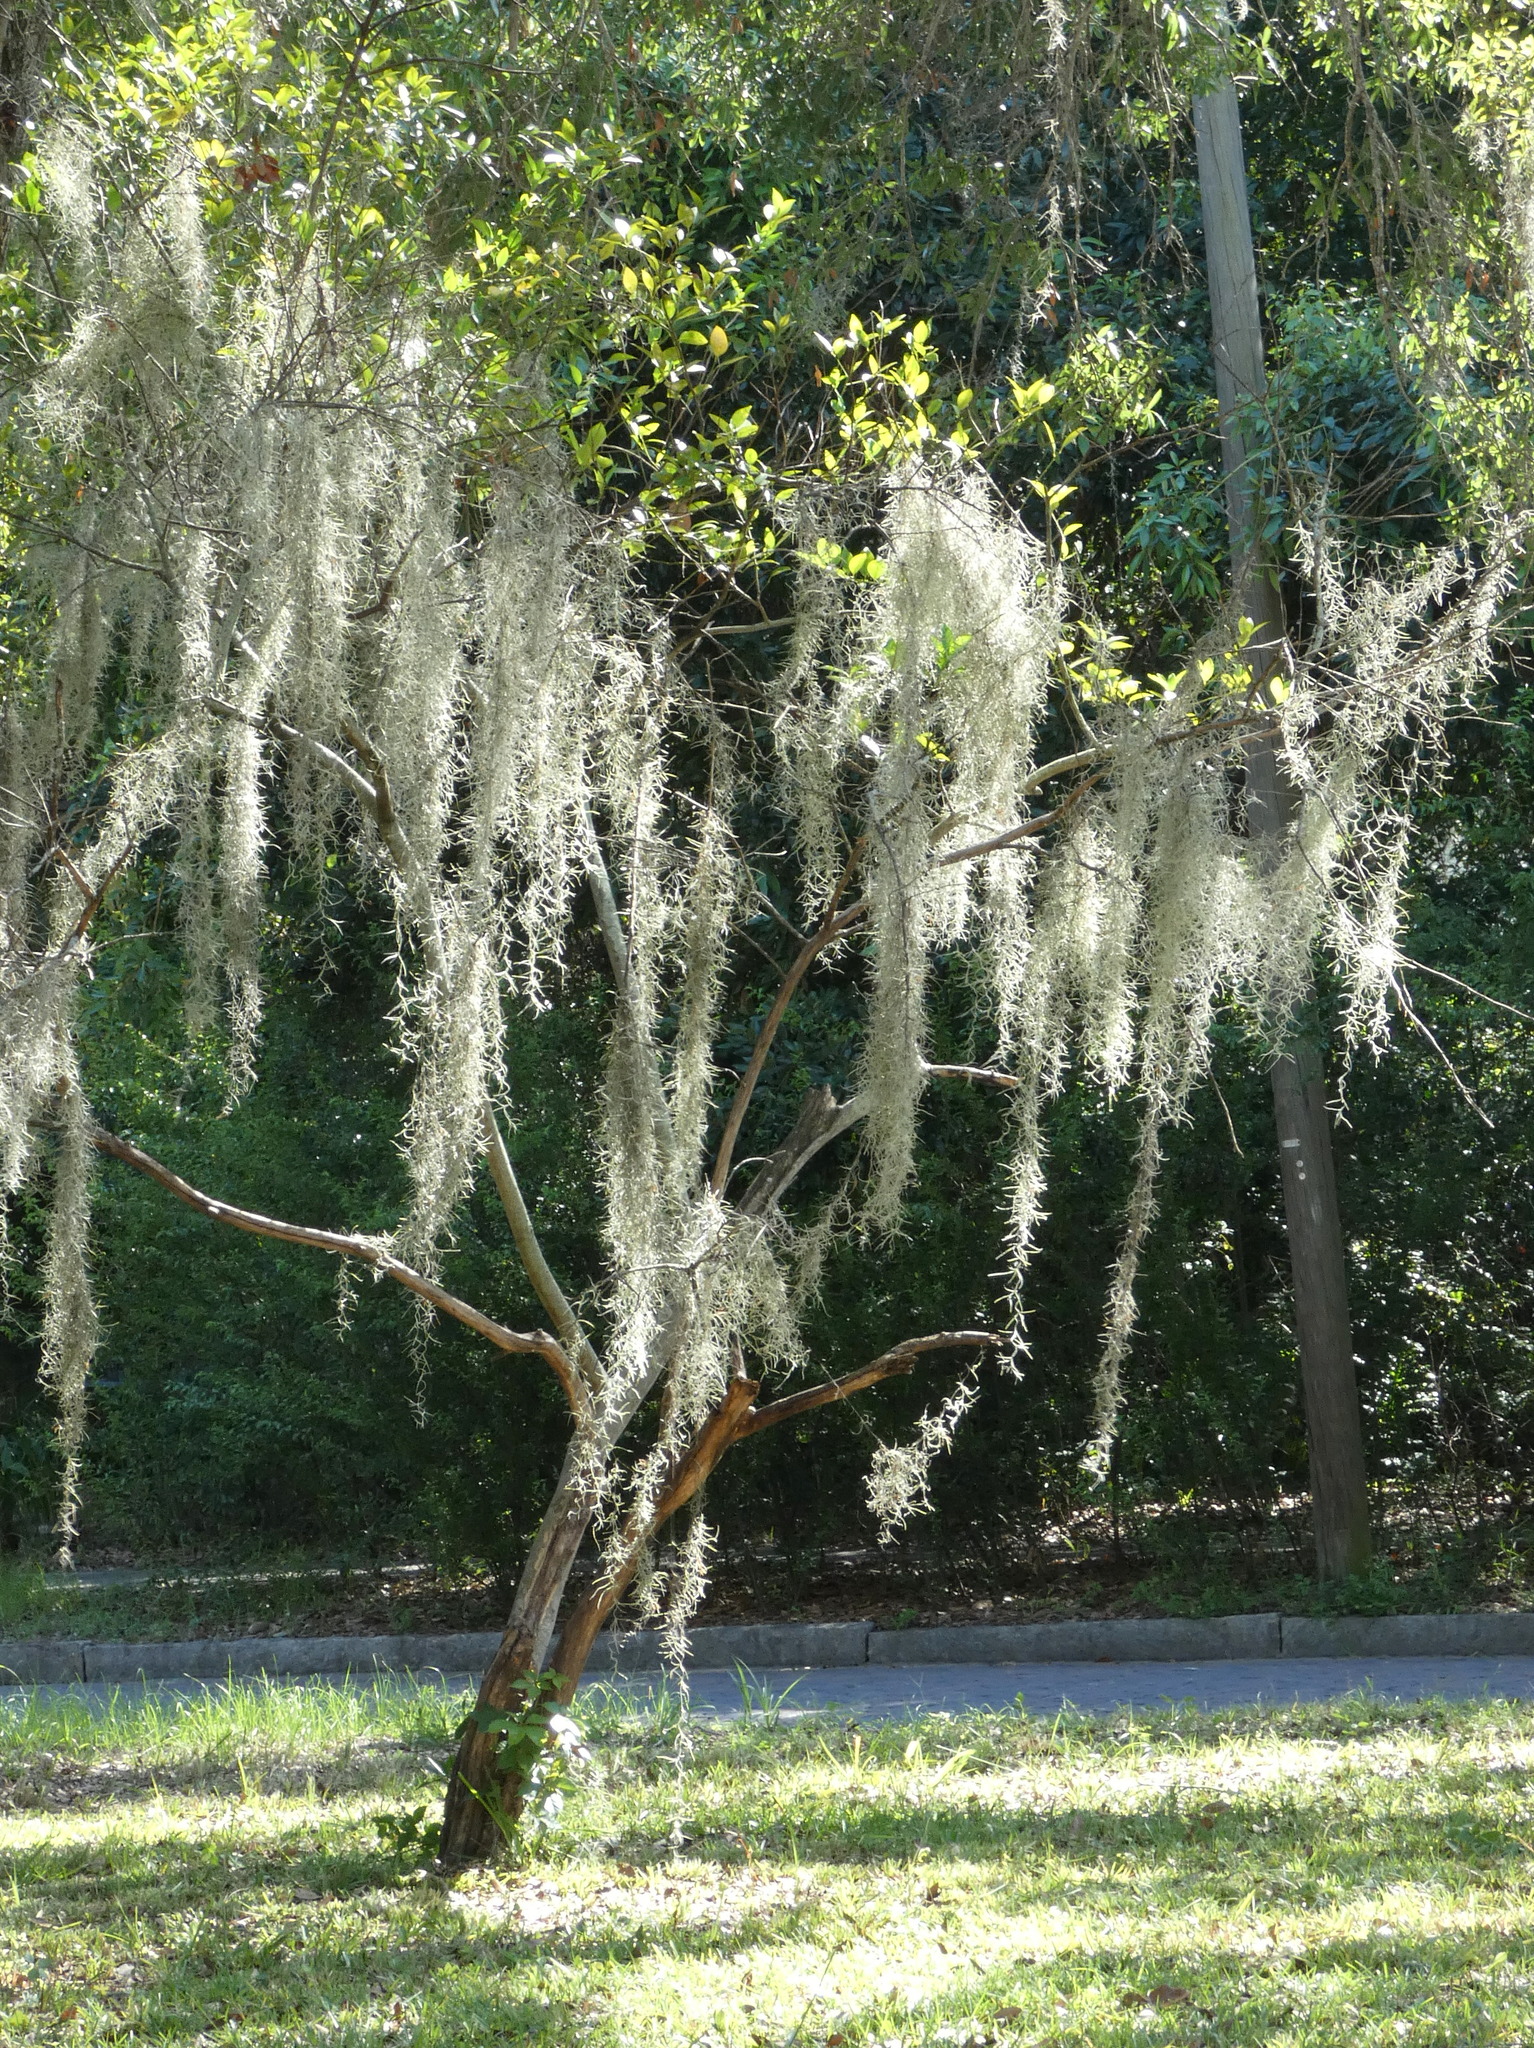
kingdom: Plantae
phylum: Tracheophyta
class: Liliopsida
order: Poales
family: Bromeliaceae
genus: Tillandsia
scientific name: Tillandsia usneoides
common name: Spanish moss
